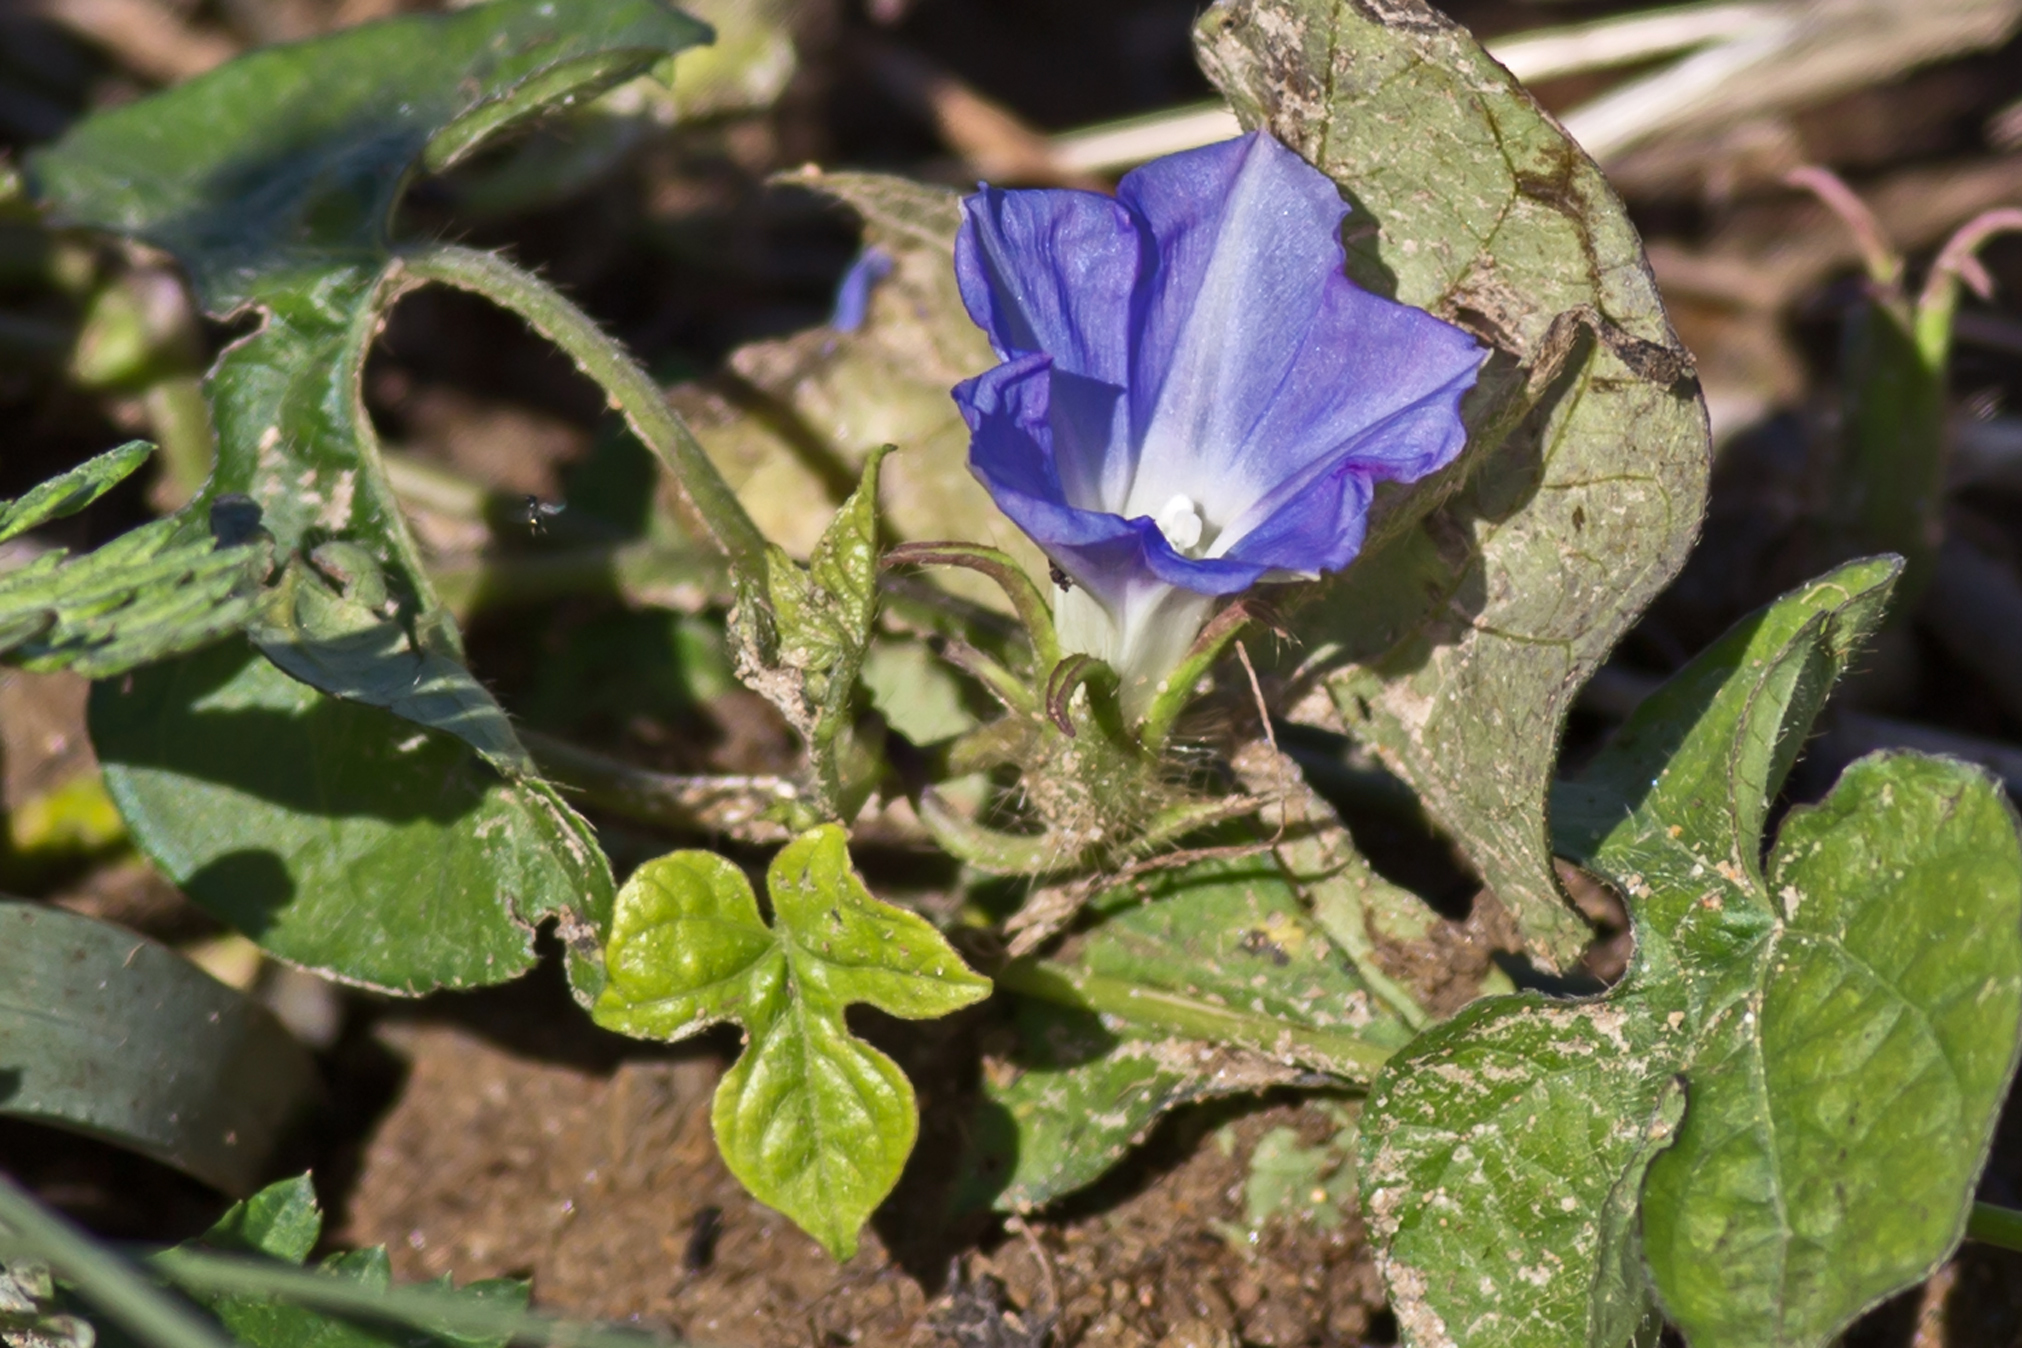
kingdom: Plantae
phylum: Tracheophyta
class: Magnoliopsida
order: Solanales
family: Convolvulaceae
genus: Ipomoea
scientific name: Ipomoea hederacea
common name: Ivy-leaved morning-glory
